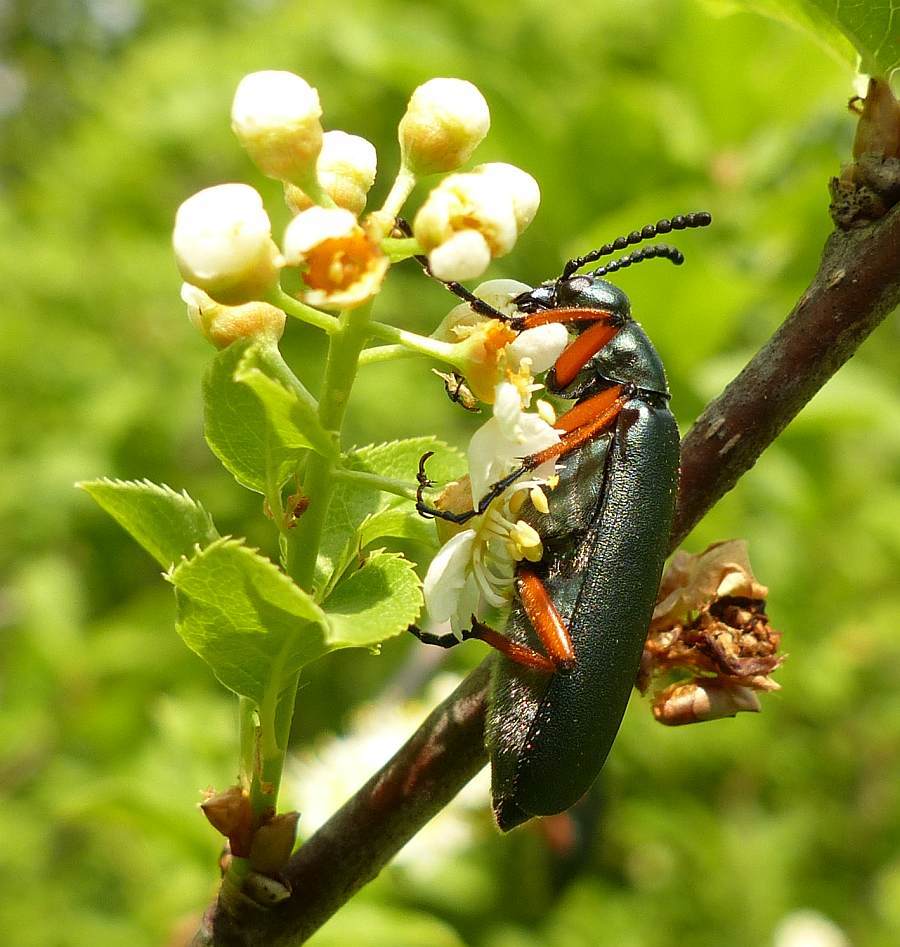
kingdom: Animalia
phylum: Arthropoda
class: Insecta
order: Coleoptera
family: Meloidae
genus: Lytta
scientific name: Lytta sayi
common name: Say's blister beetle
